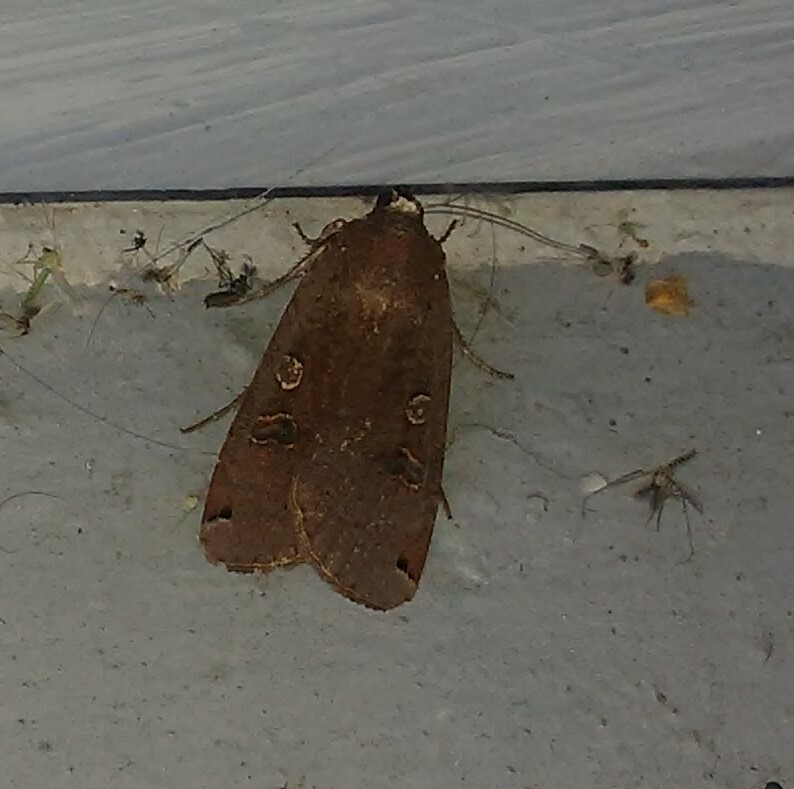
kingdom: Animalia
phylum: Arthropoda
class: Insecta
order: Lepidoptera
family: Noctuidae
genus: Noctua
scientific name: Noctua pronuba
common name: Large yellow underwing
